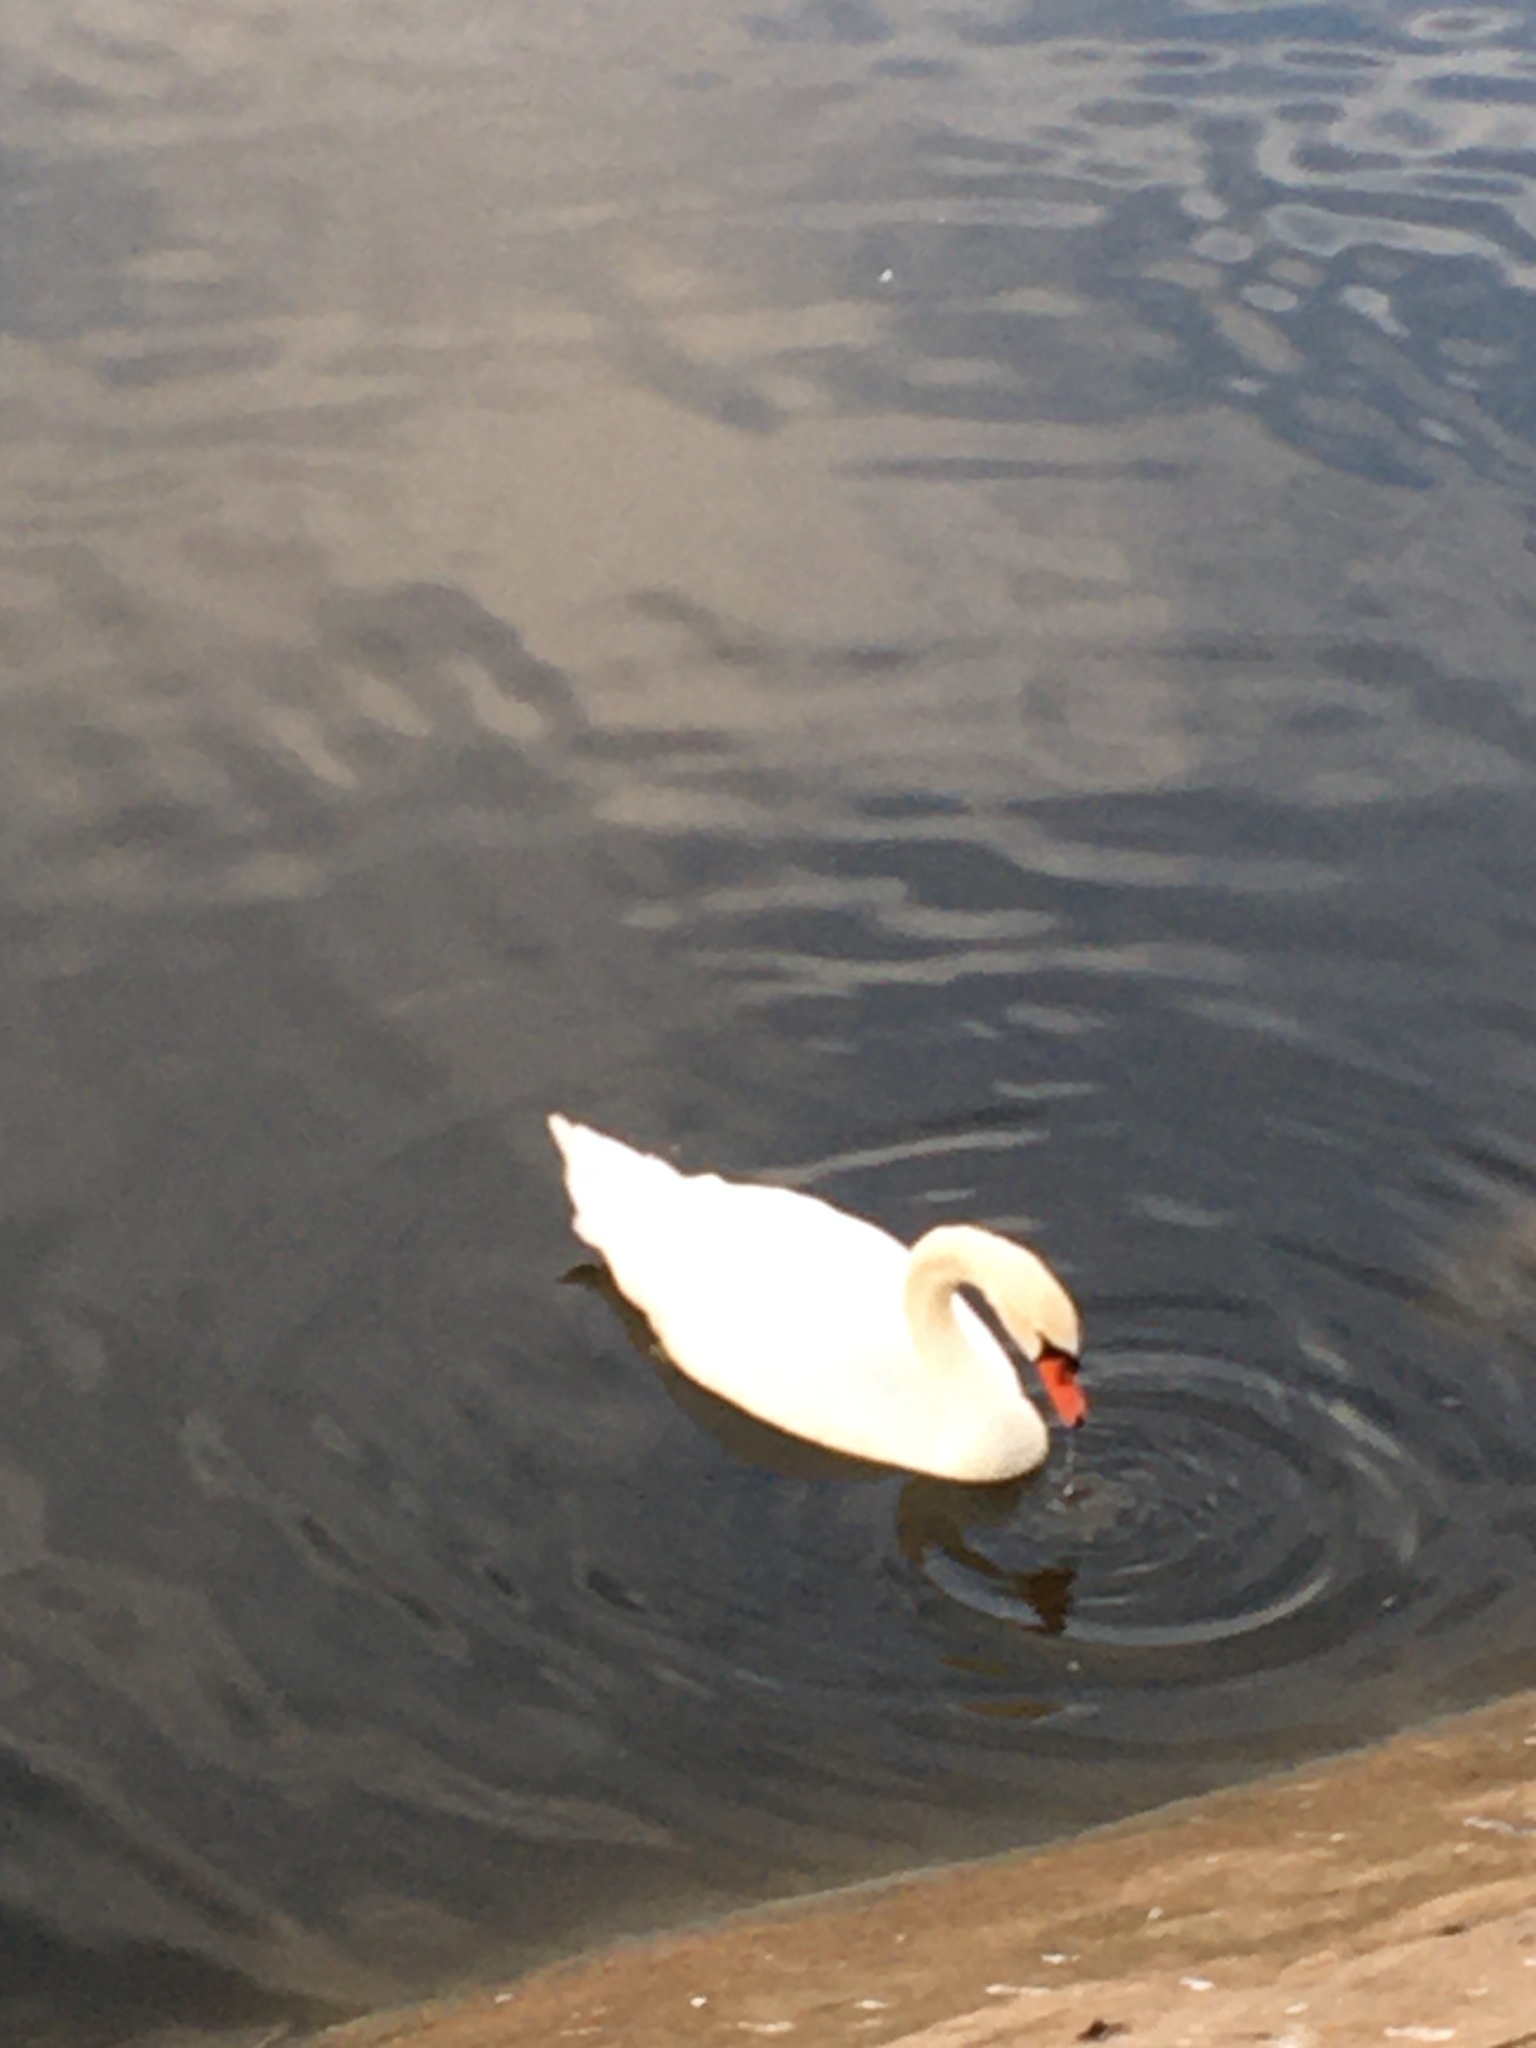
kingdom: Animalia
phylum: Chordata
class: Aves
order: Anseriformes
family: Anatidae
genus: Cygnus
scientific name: Cygnus olor
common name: Mute swan
